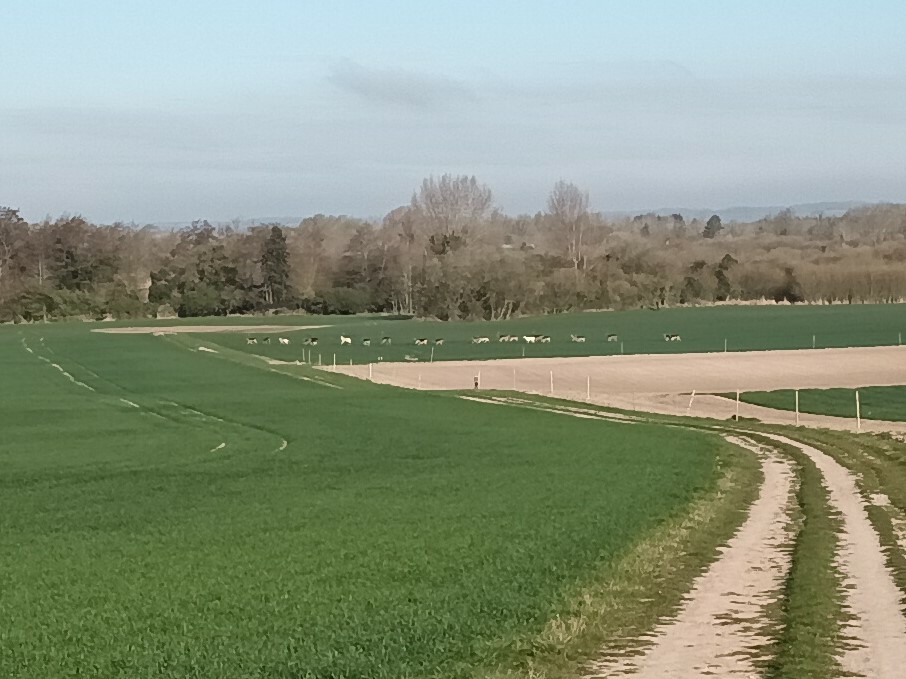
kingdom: Animalia
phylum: Chordata
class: Mammalia
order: Artiodactyla
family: Cervidae
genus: Dama
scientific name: Dama dama
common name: Fallow deer
